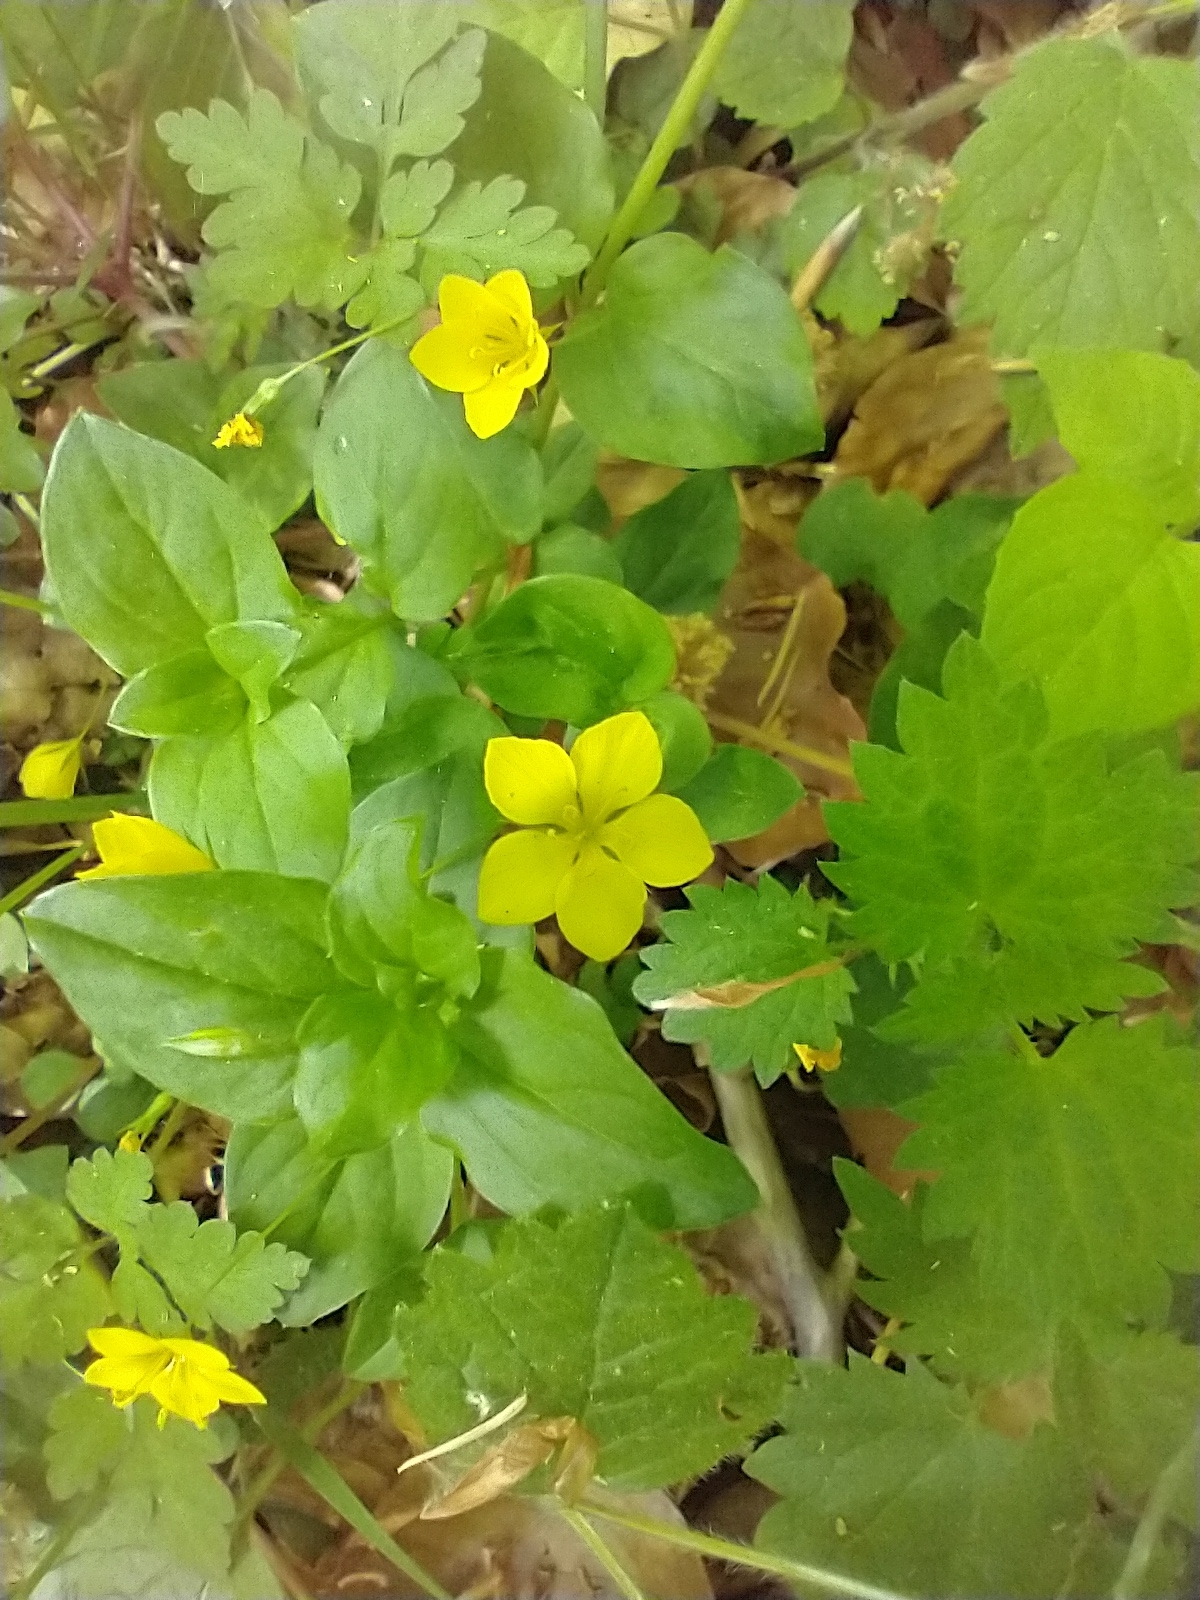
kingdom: Plantae
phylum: Tracheophyta
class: Magnoliopsida
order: Ericales
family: Primulaceae
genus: Lysimachia
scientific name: Lysimachia nemorum
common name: Yellow pimpernel
